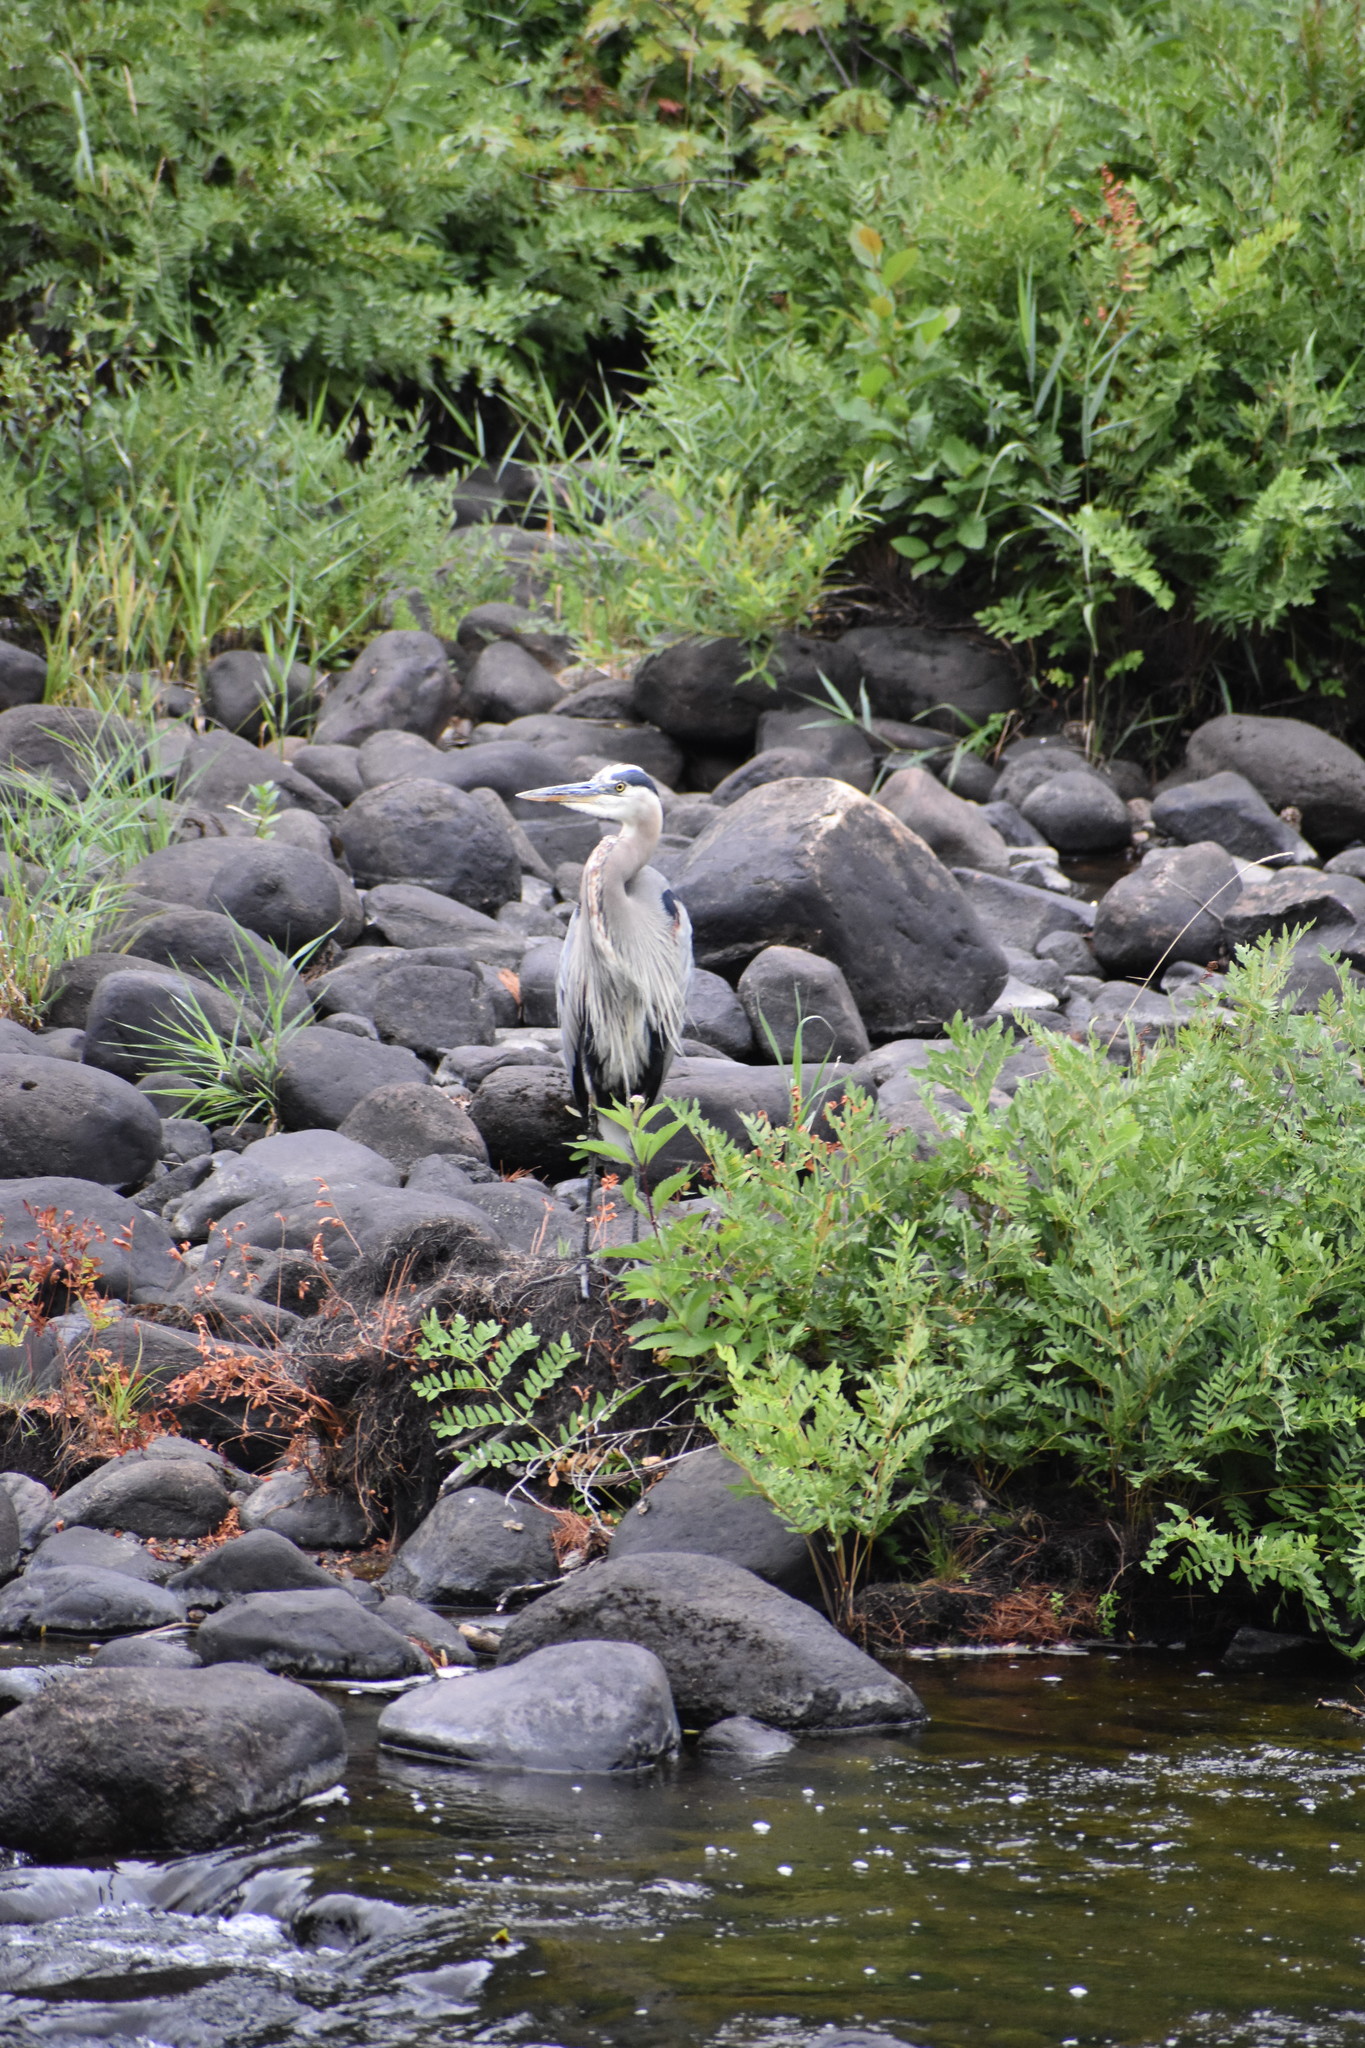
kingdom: Animalia
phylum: Chordata
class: Aves
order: Pelecaniformes
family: Ardeidae
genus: Ardea
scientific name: Ardea herodias
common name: Great blue heron
